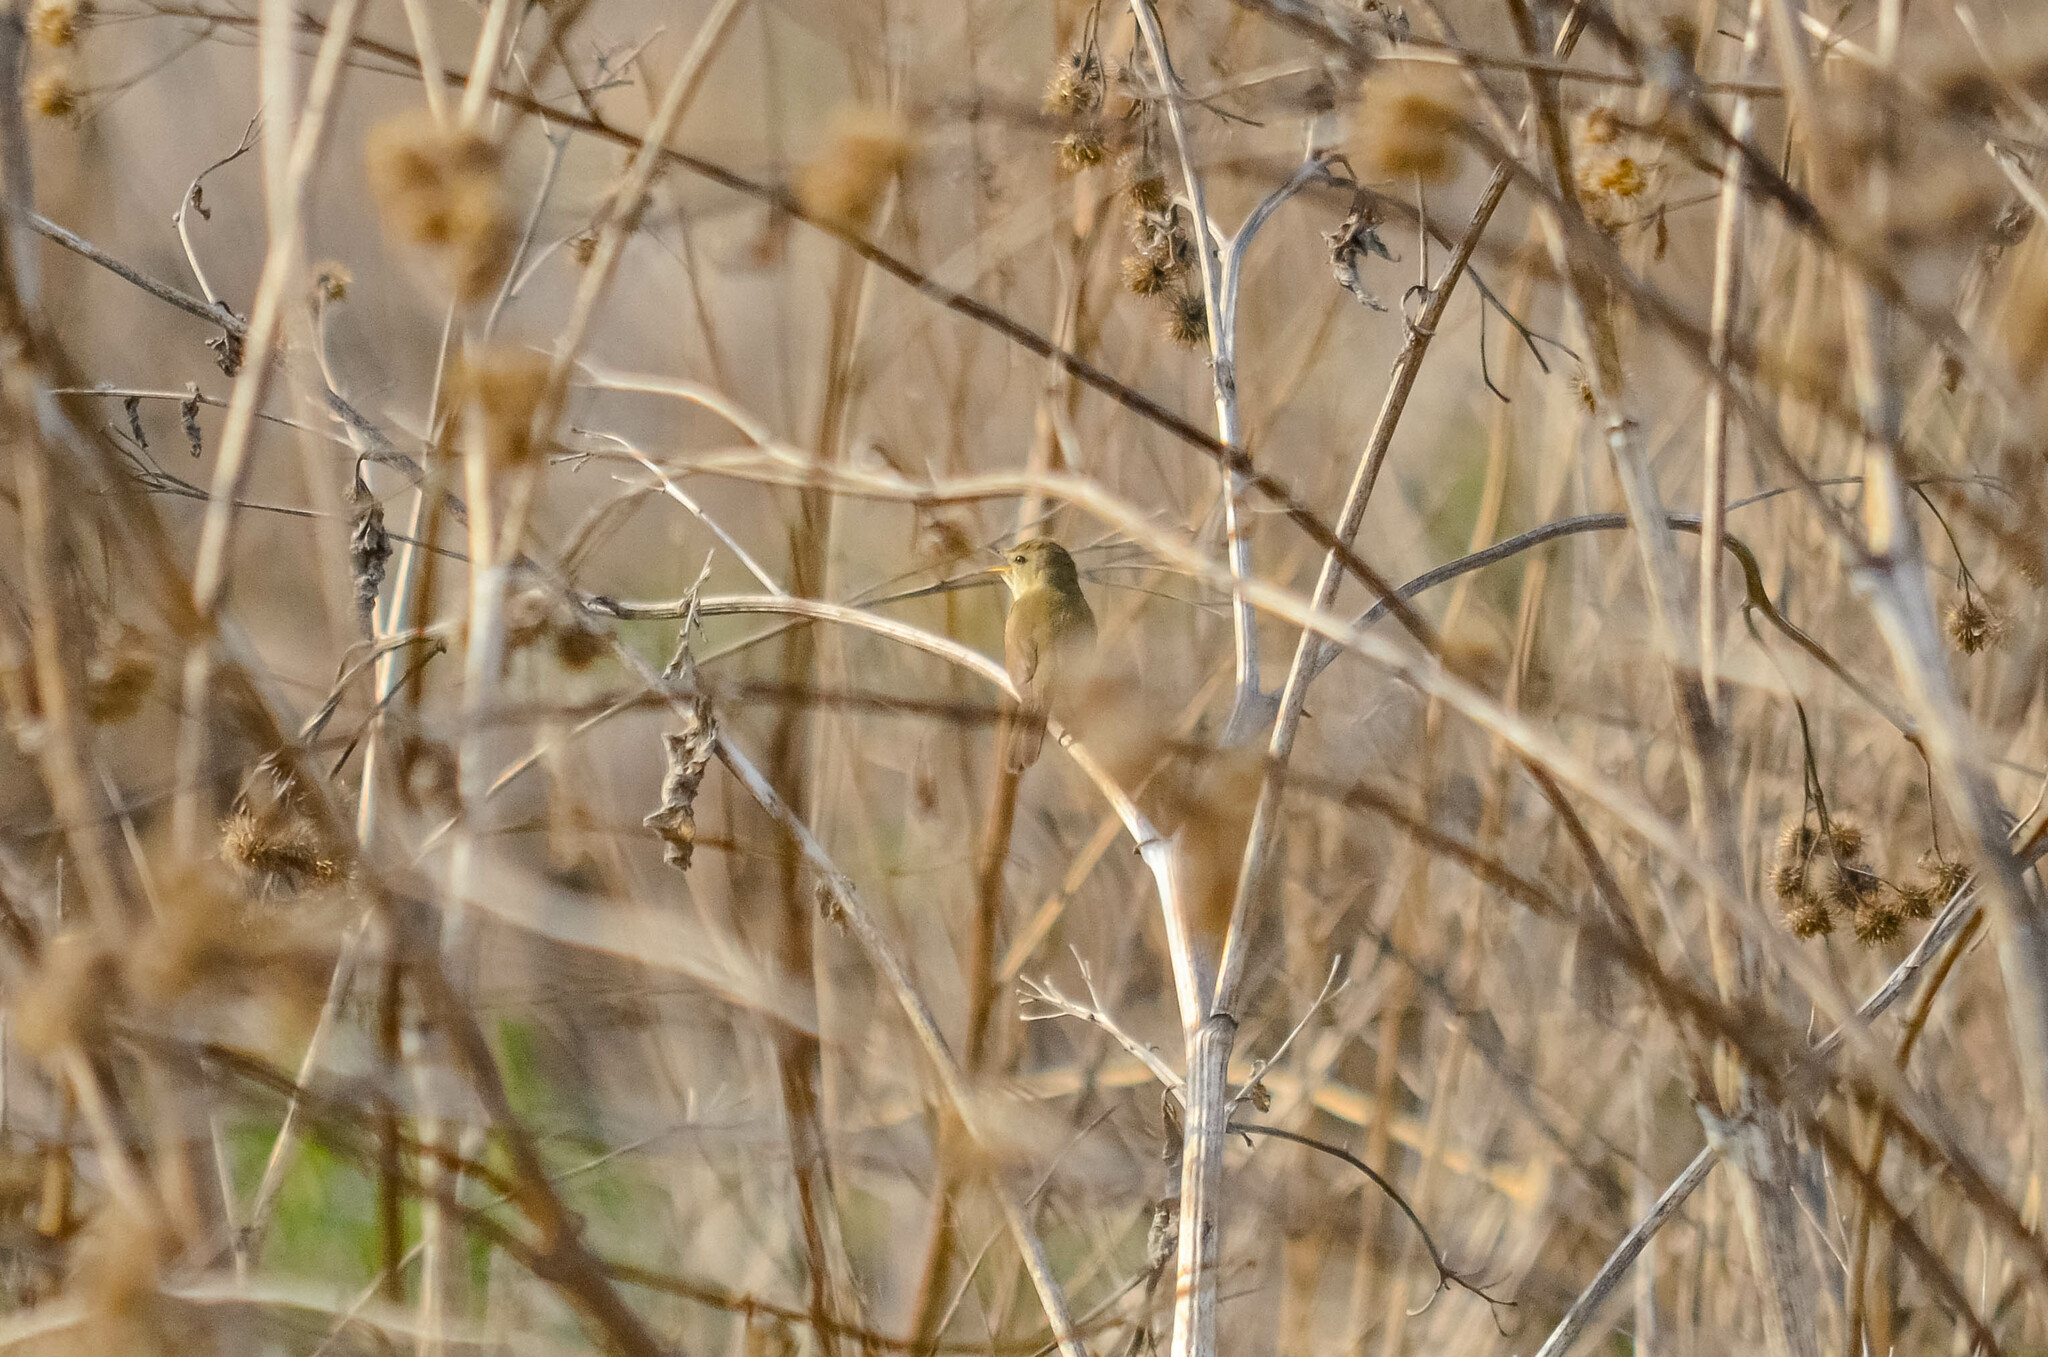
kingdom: Animalia
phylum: Chordata
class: Aves
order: Passeriformes
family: Acrocephalidae
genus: Acrocephalus
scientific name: Acrocephalus dumetorum
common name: Blyth's reed warbler
